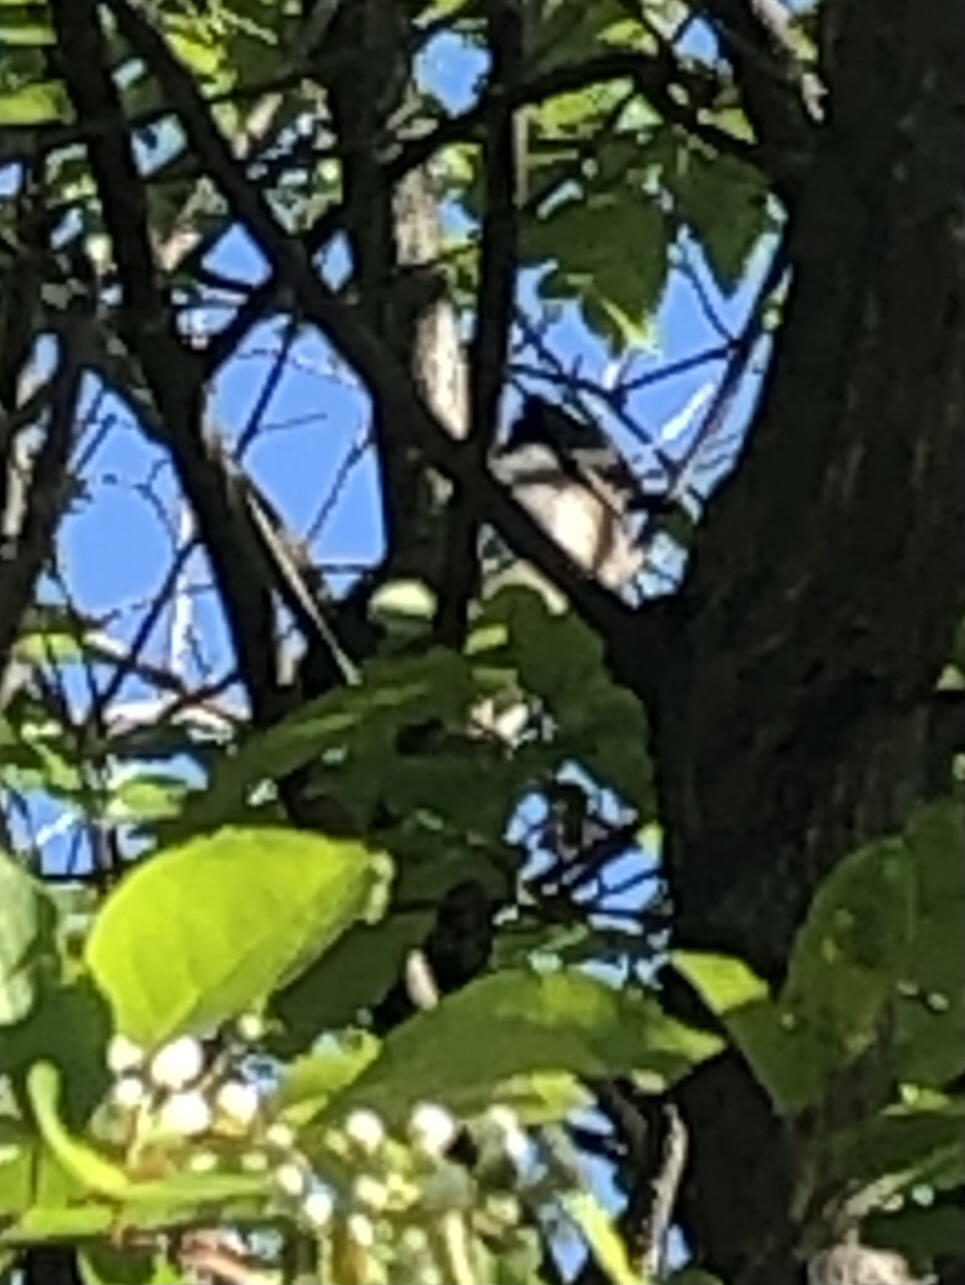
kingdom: Animalia
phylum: Chordata
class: Aves
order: Passeriformes
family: Corvidae
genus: Cyanocitta
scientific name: Cyanocitta cristata
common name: Blue jay
